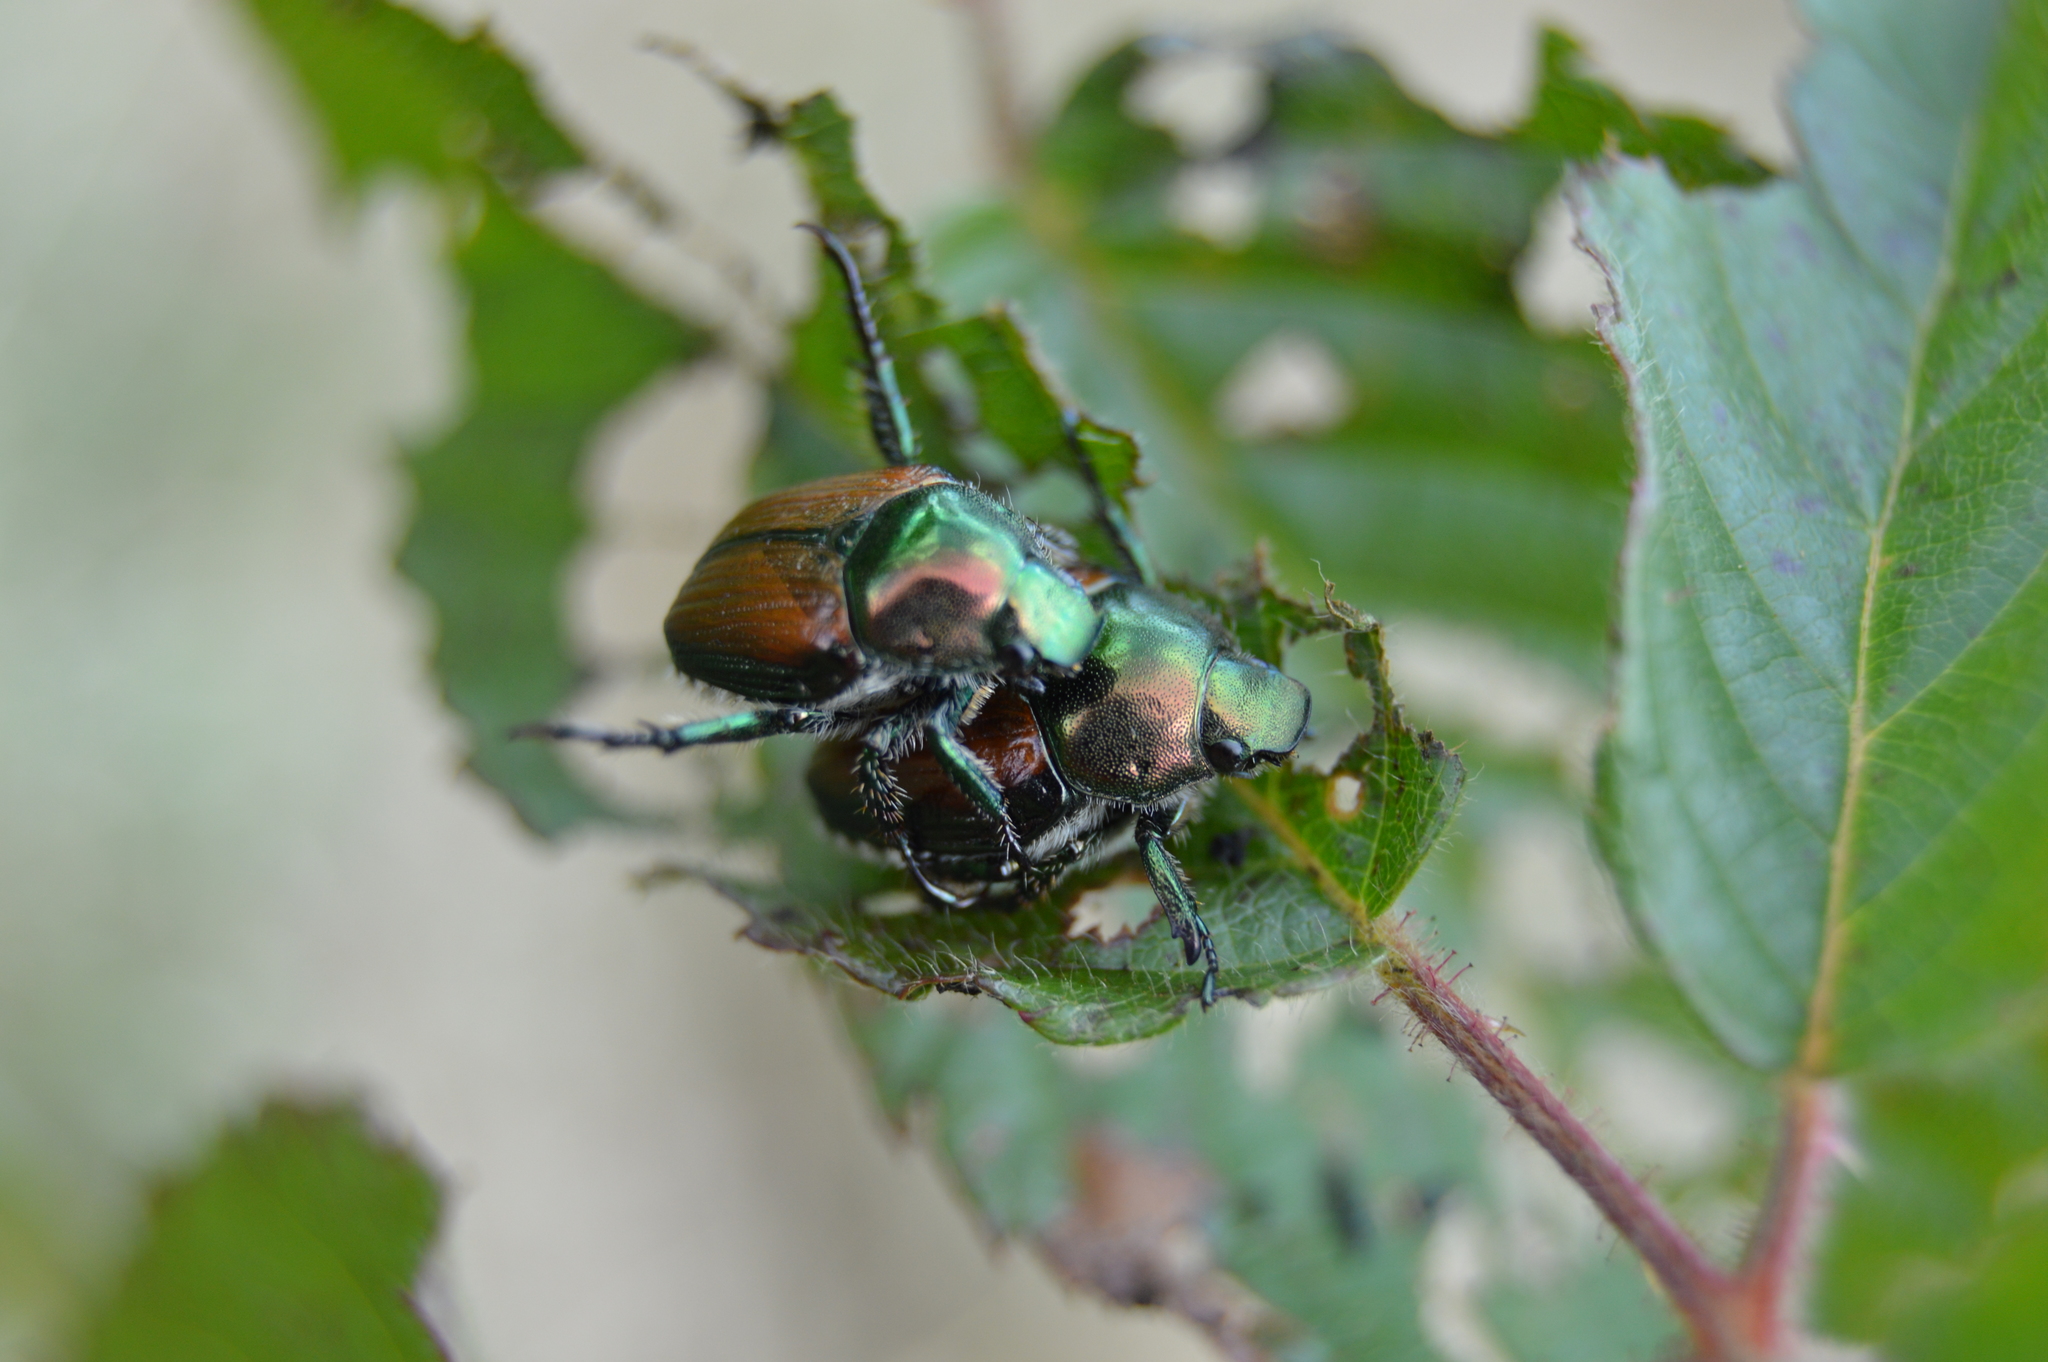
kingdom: Animalia
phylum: Arthropoda
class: Insecta
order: Coleoptera
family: Scarabaeidae
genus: Popillia
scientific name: Popillia japonica
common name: Japanese beetle
